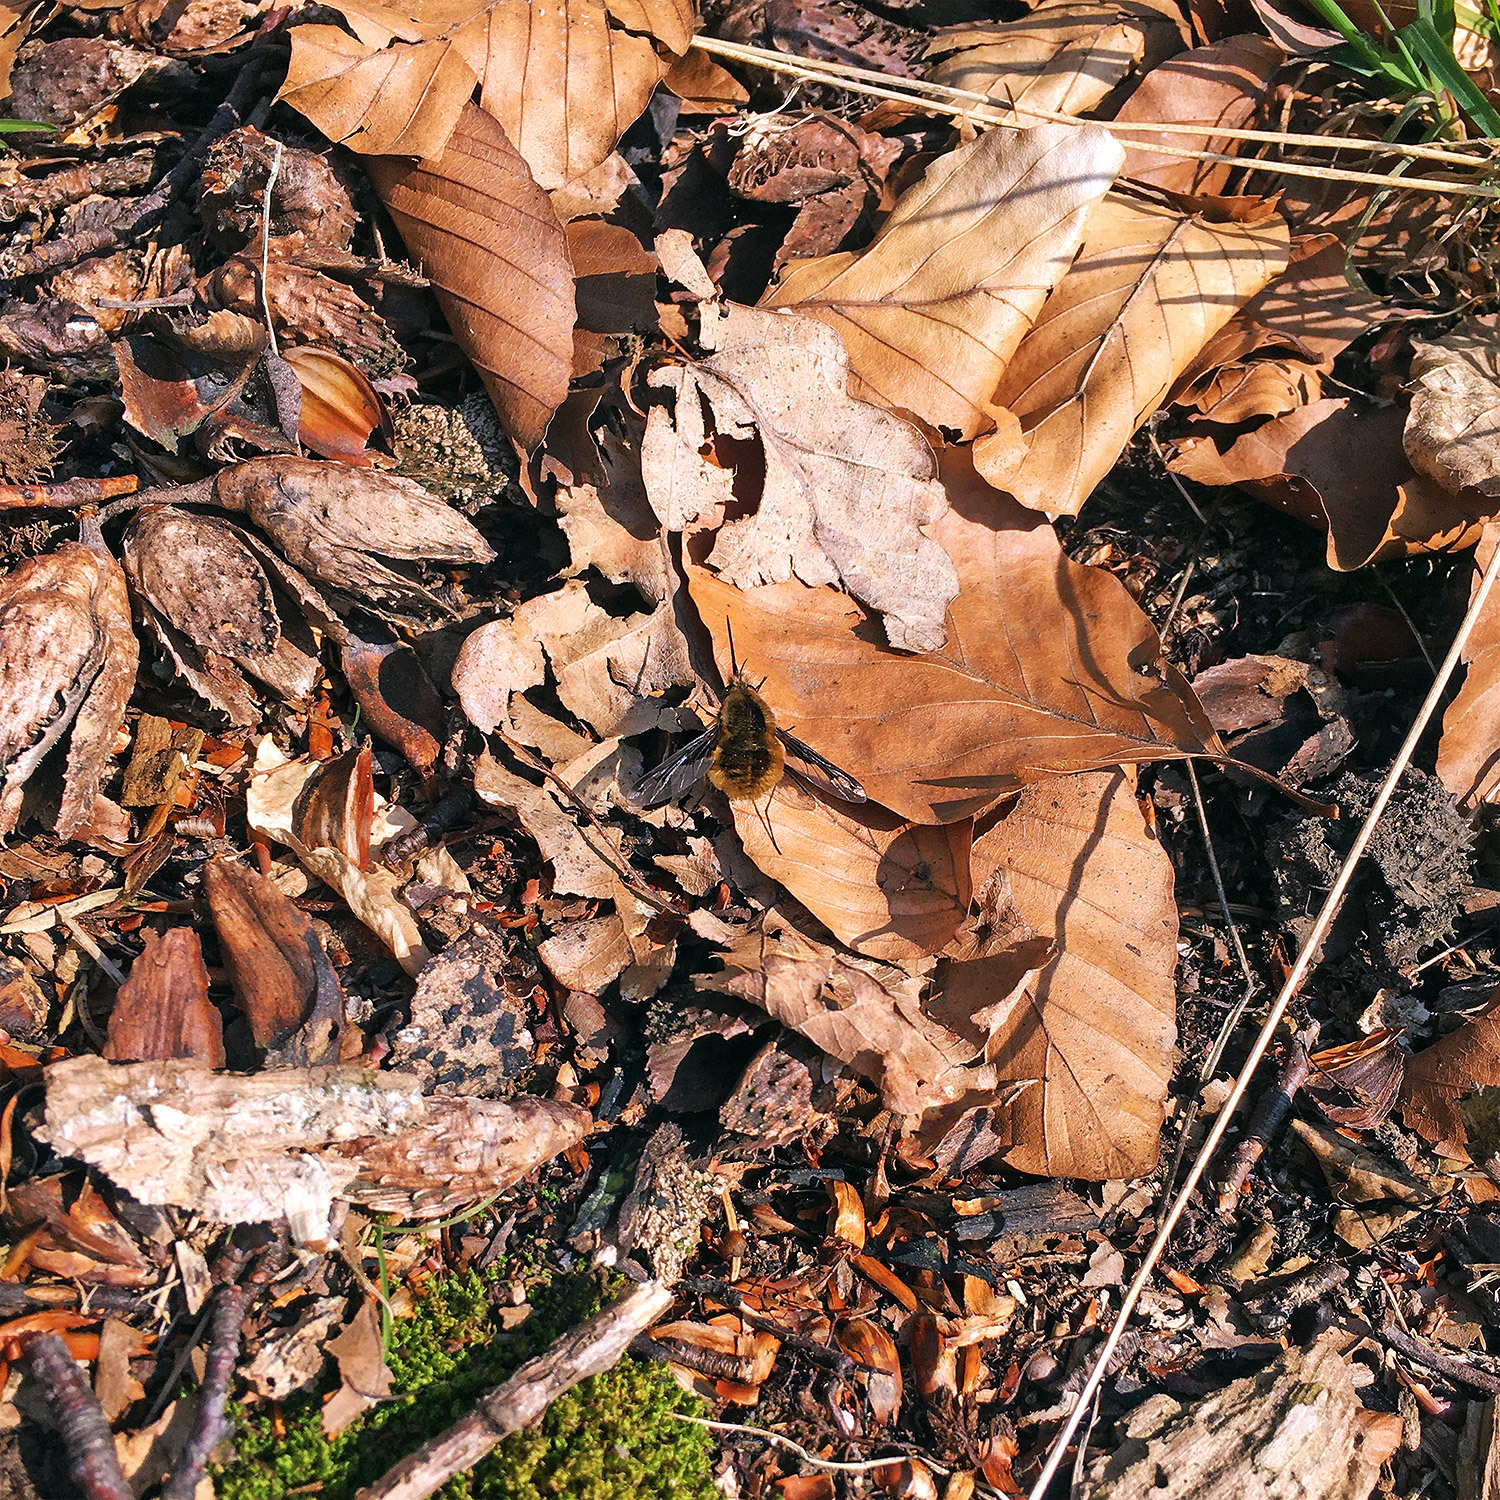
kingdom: Animalia
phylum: Arthropoda
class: Insecta
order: Diptera
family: Bombyliidae
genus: Bombylius
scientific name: Bombylius major
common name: Bee fly
